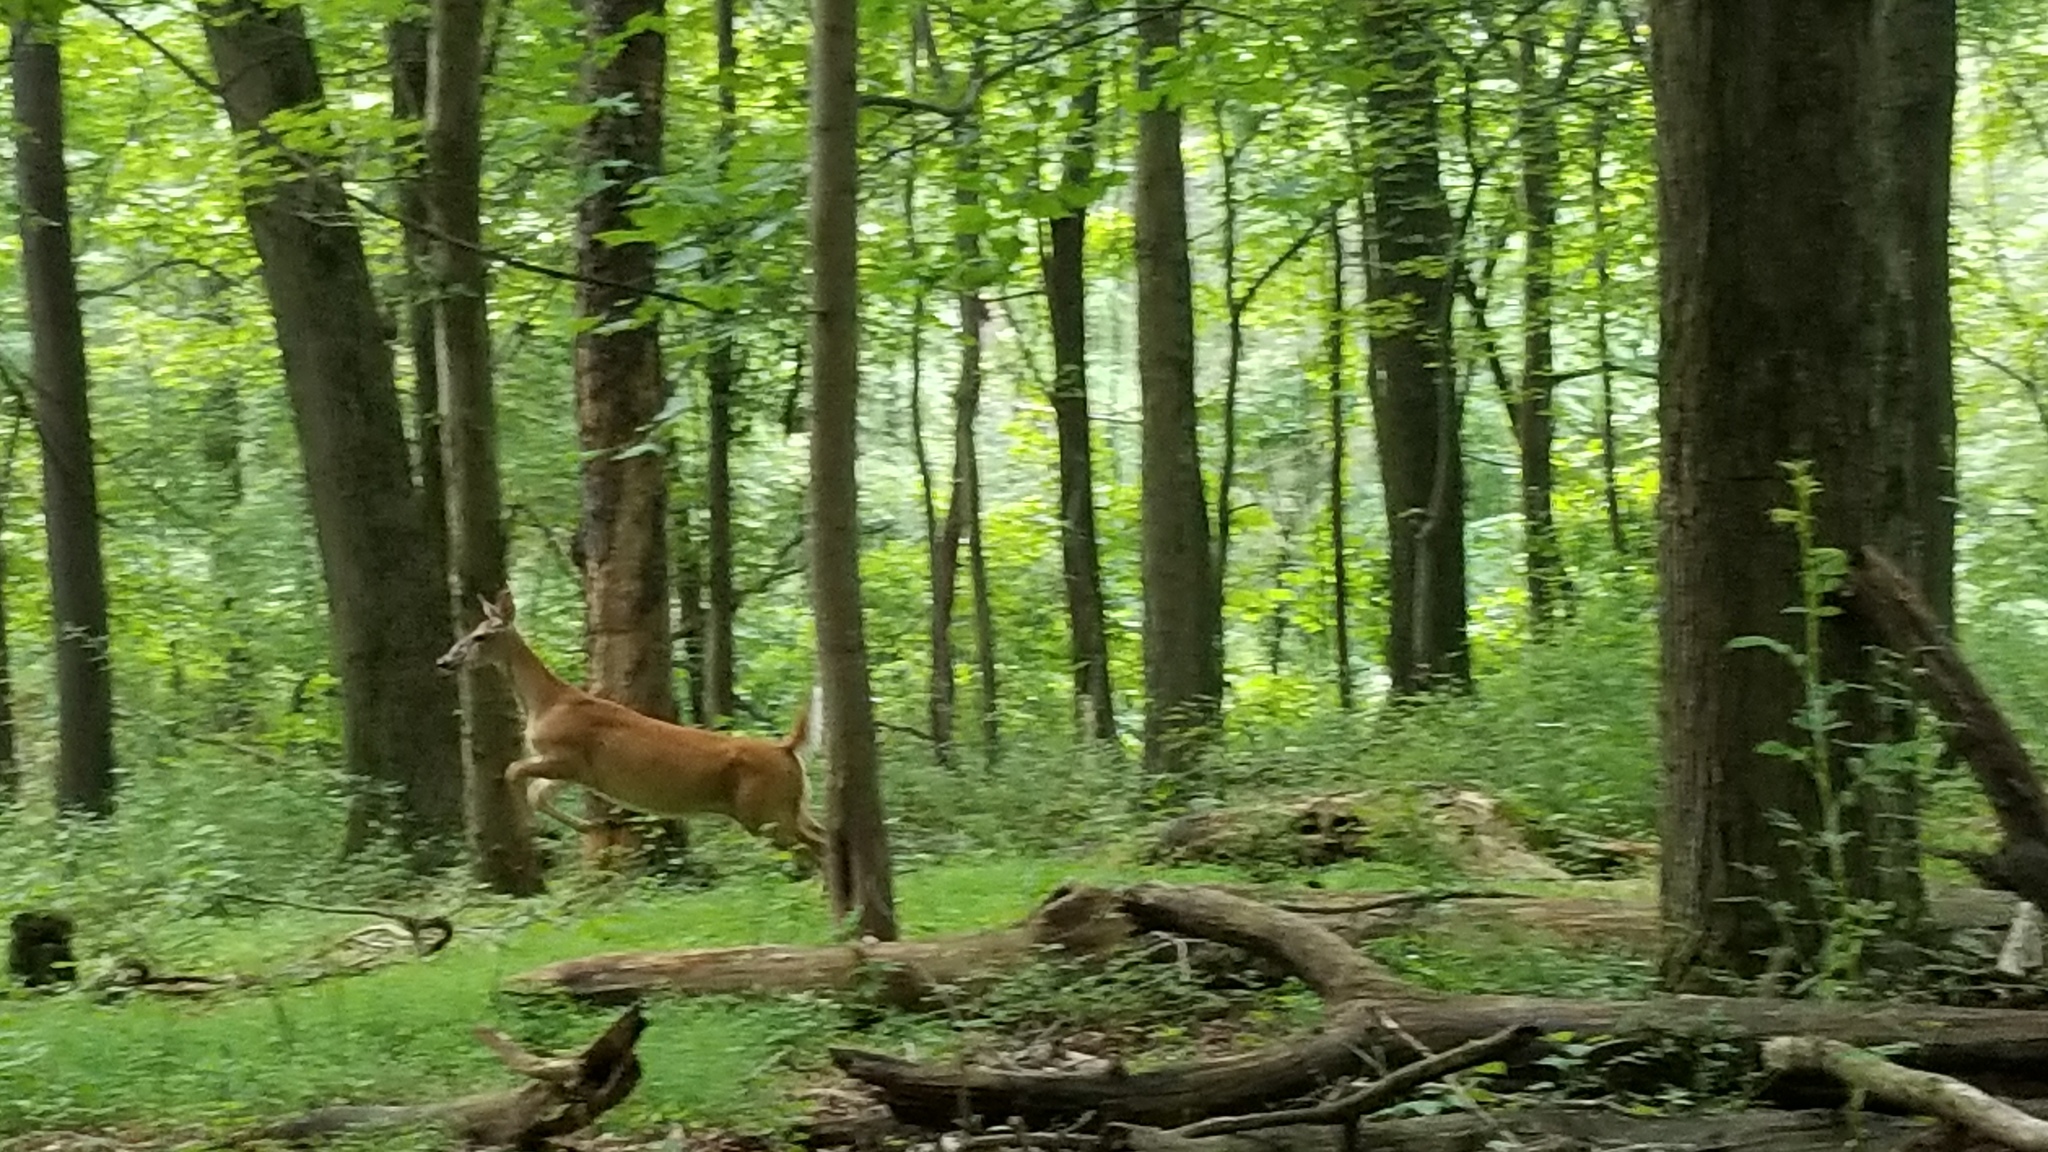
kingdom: Animalia
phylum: Chordata
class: Mammalia
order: Artiodactyla
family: Cervidae
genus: Odocoileus
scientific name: Odocoileus virginianus
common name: White-tailed deer
